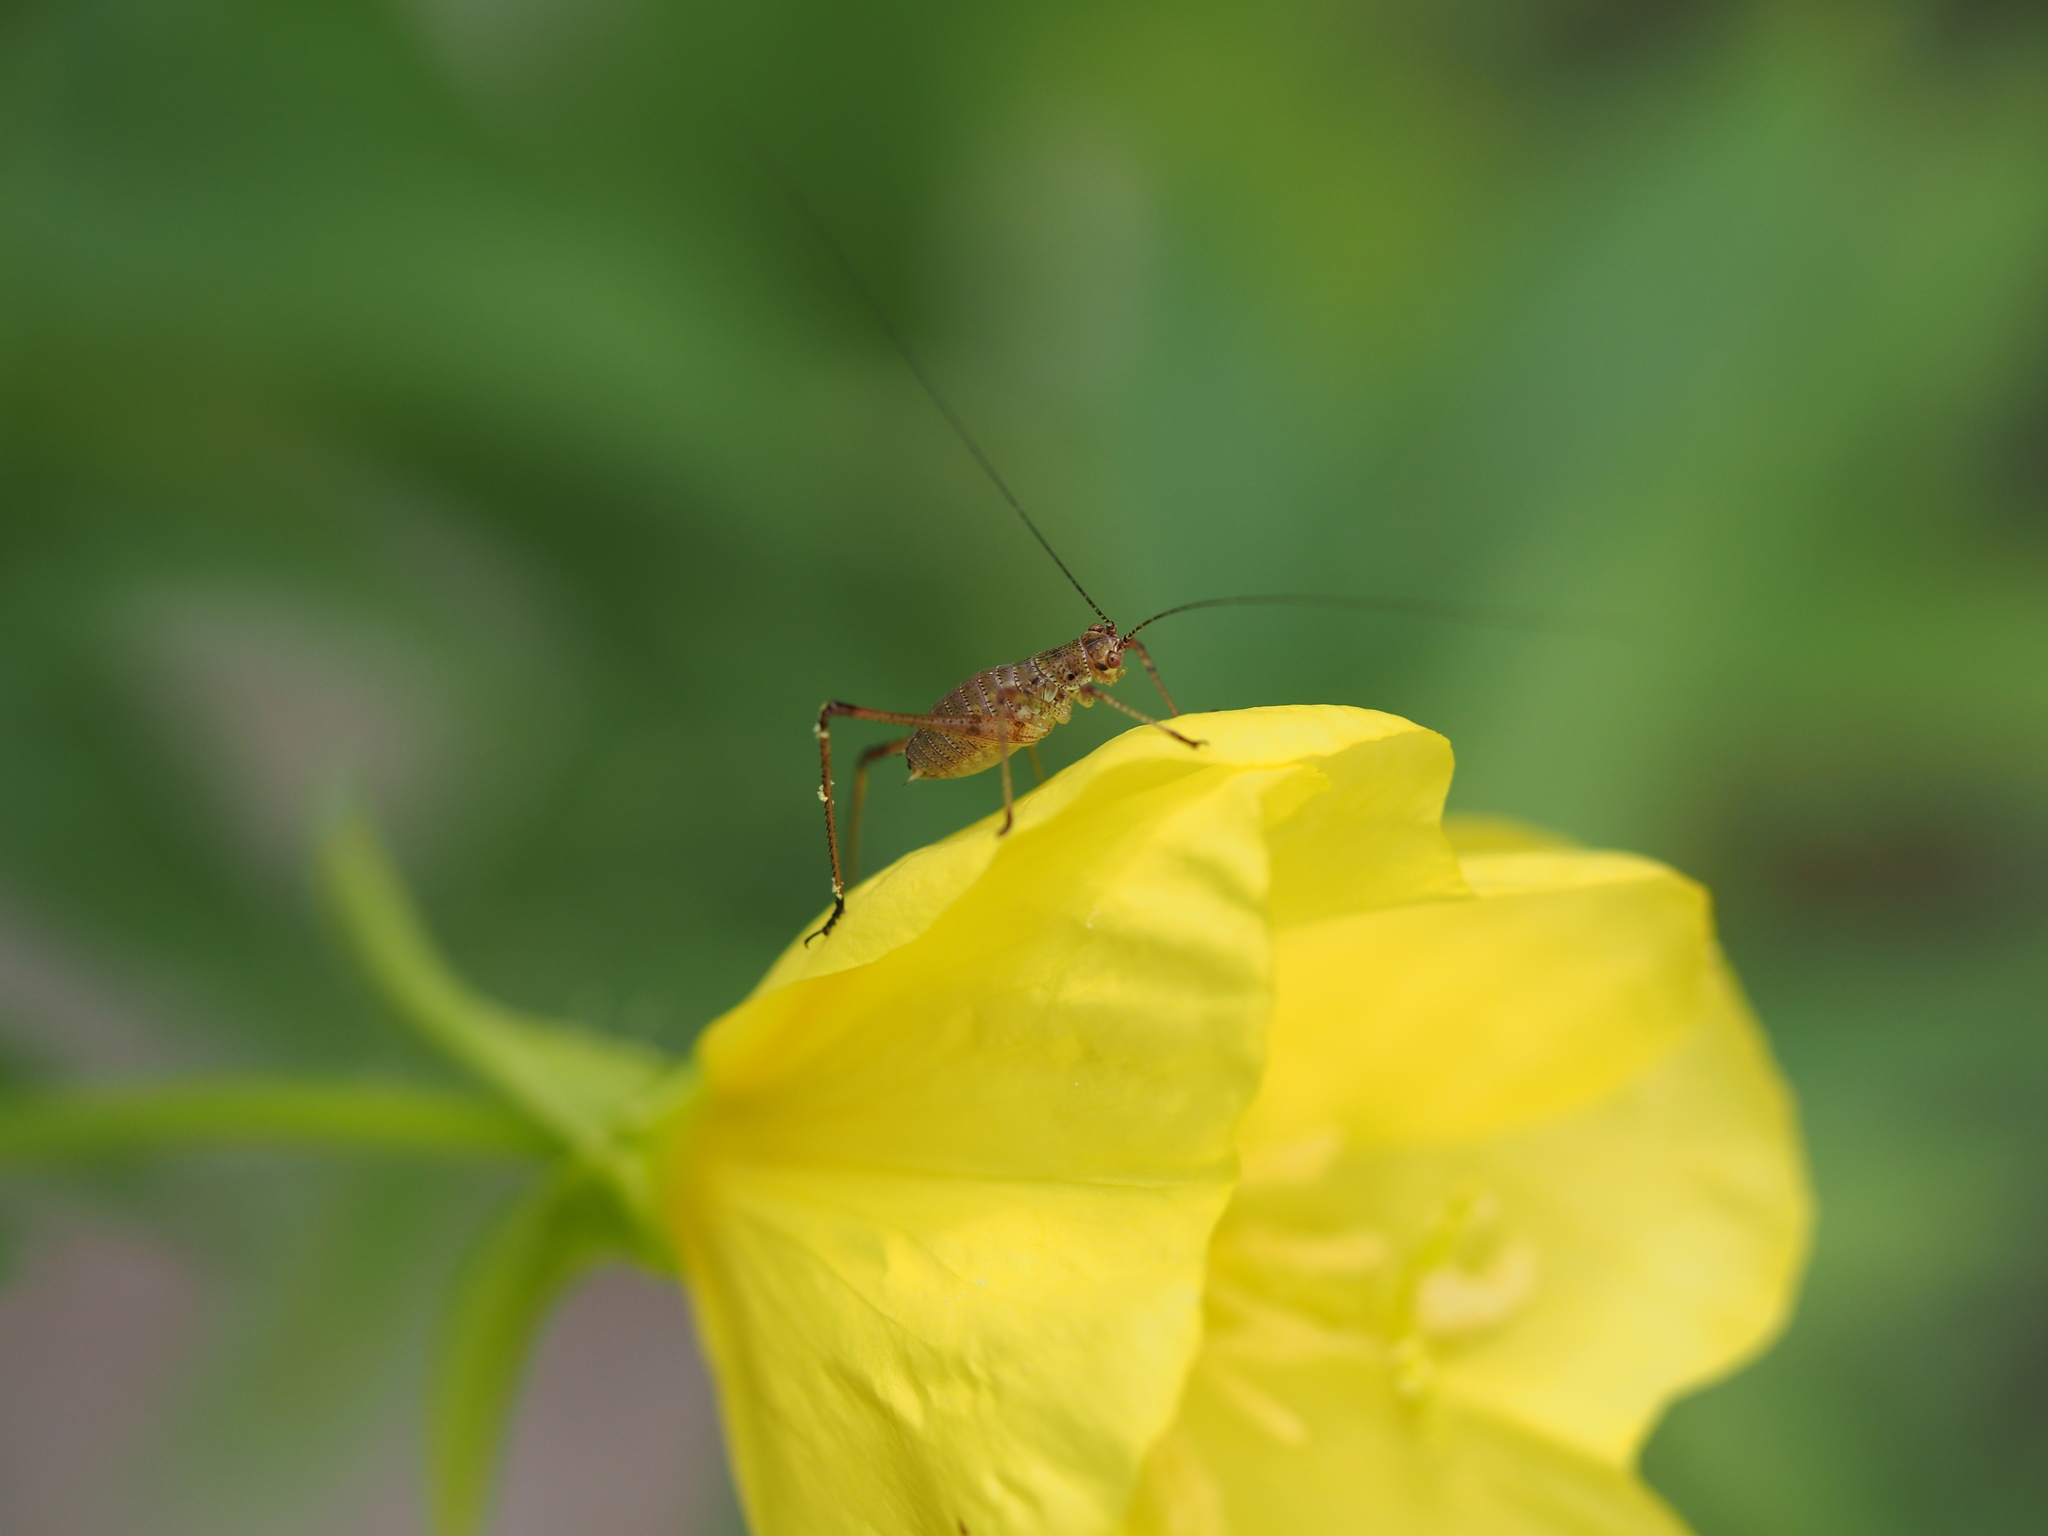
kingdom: Animalia
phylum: Arthropoda
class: Insecta
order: Orthoptera
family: Tettigoniidae
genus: Phaneroptera
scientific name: Phaneroptera nana
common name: Southern sickle bush-cricket
